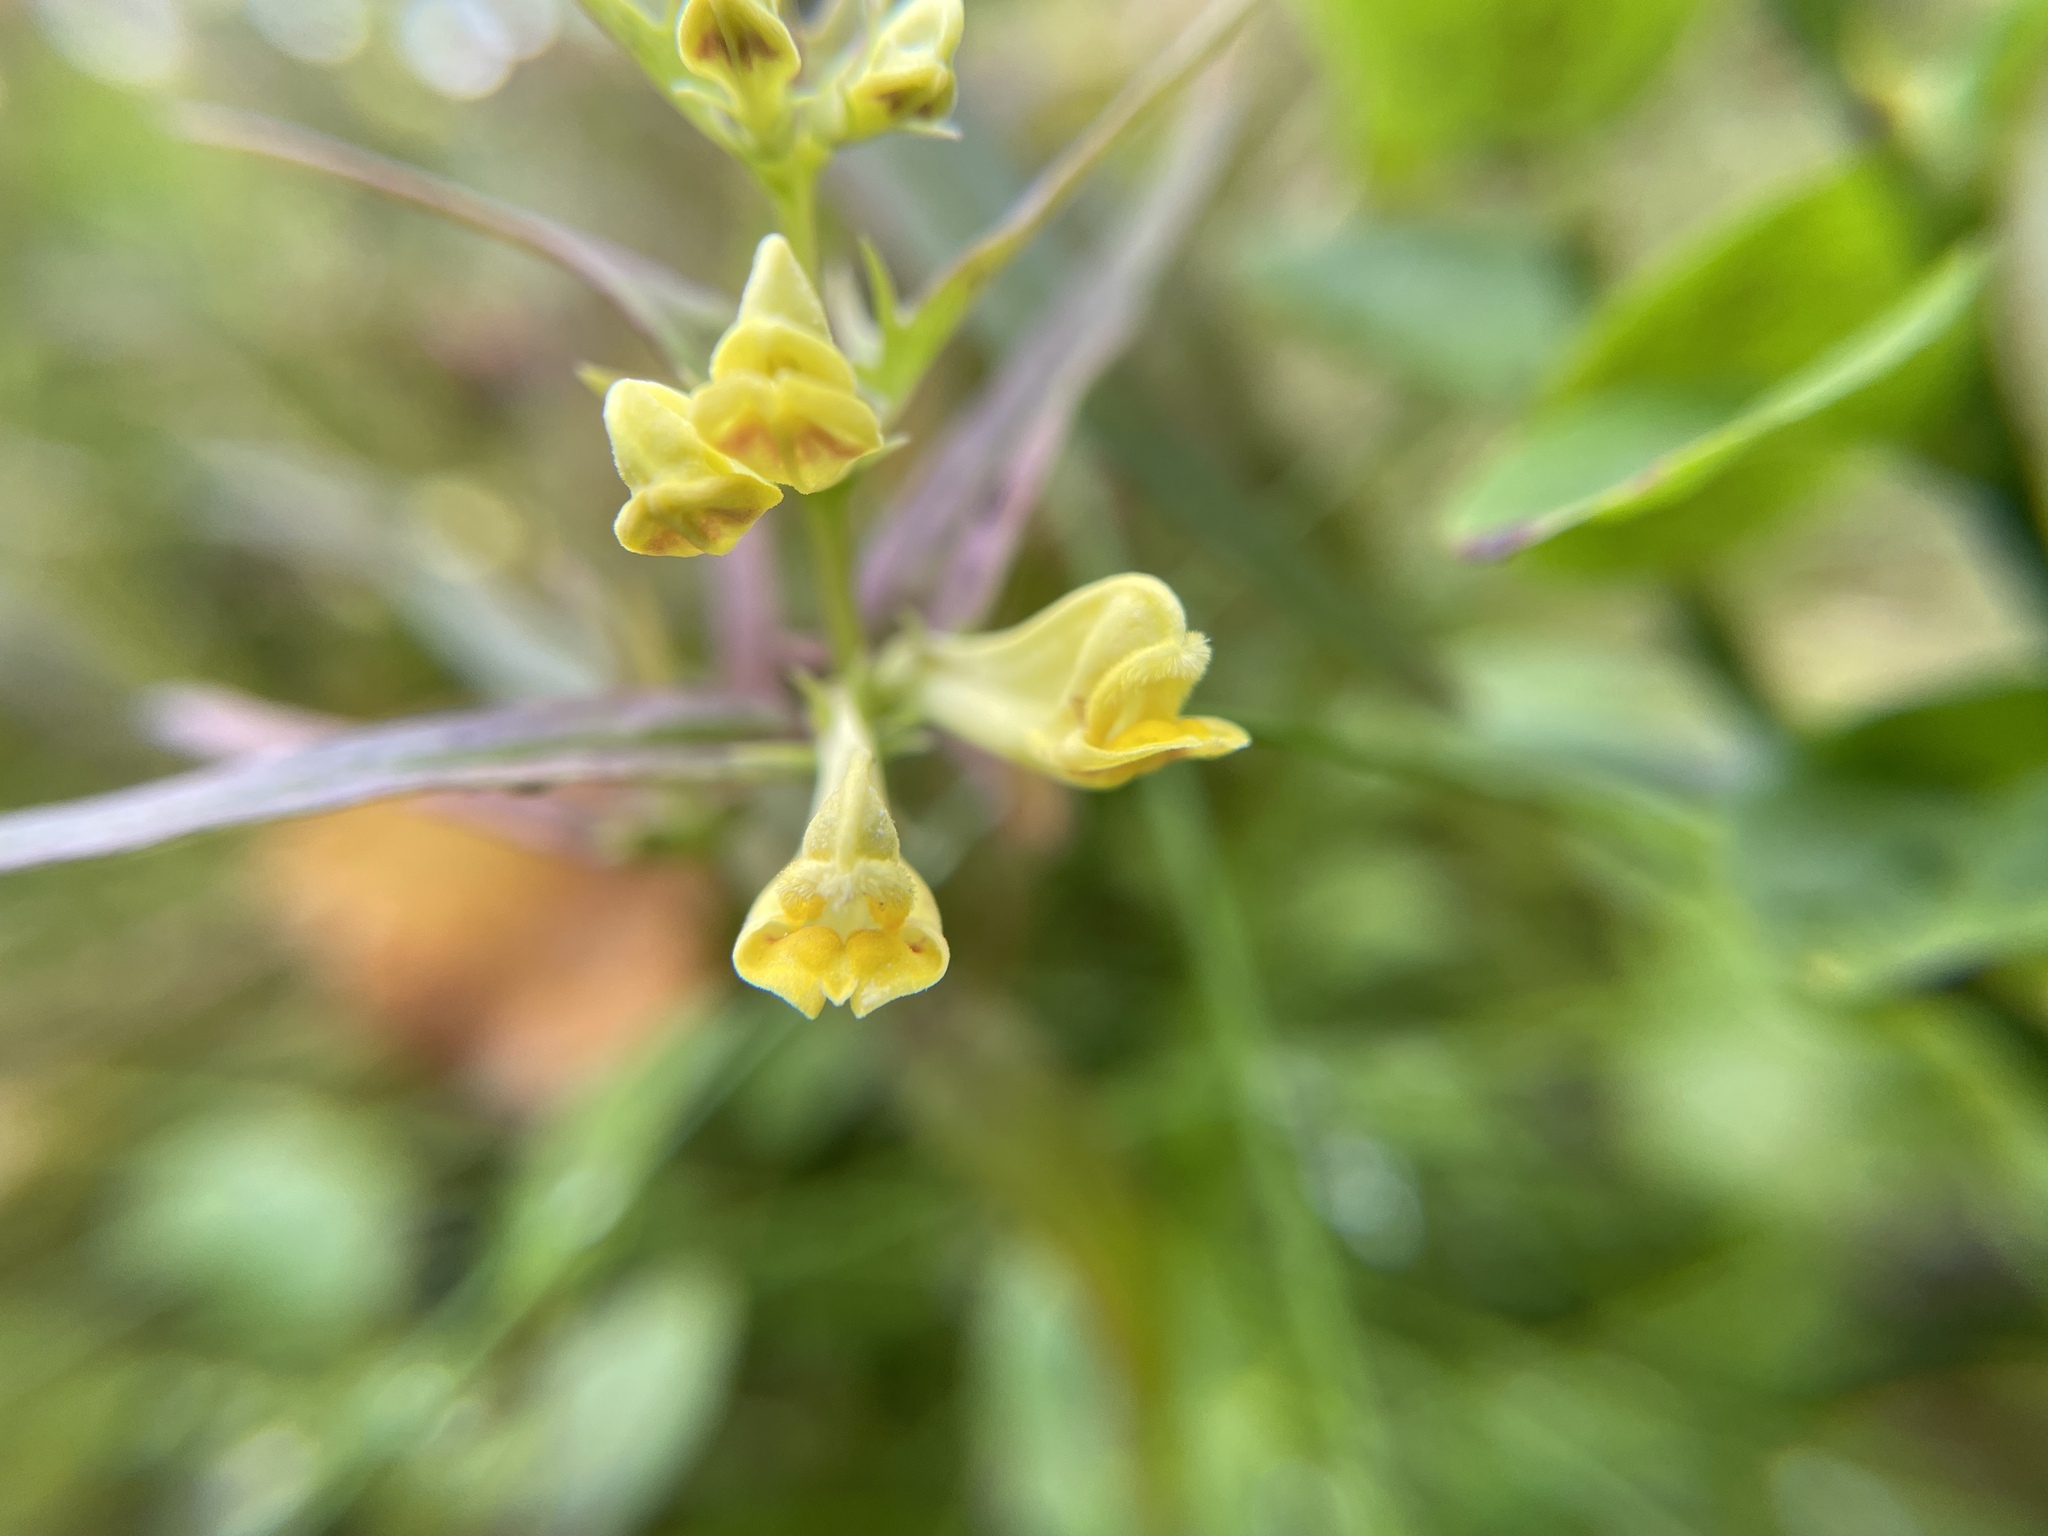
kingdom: Plantae
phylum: Tracheophyta
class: Magnoliopsida
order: Lamiales
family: Orobanchaceae
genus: Melampyrum
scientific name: Melampyrum pratense
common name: Common cow-wheat
